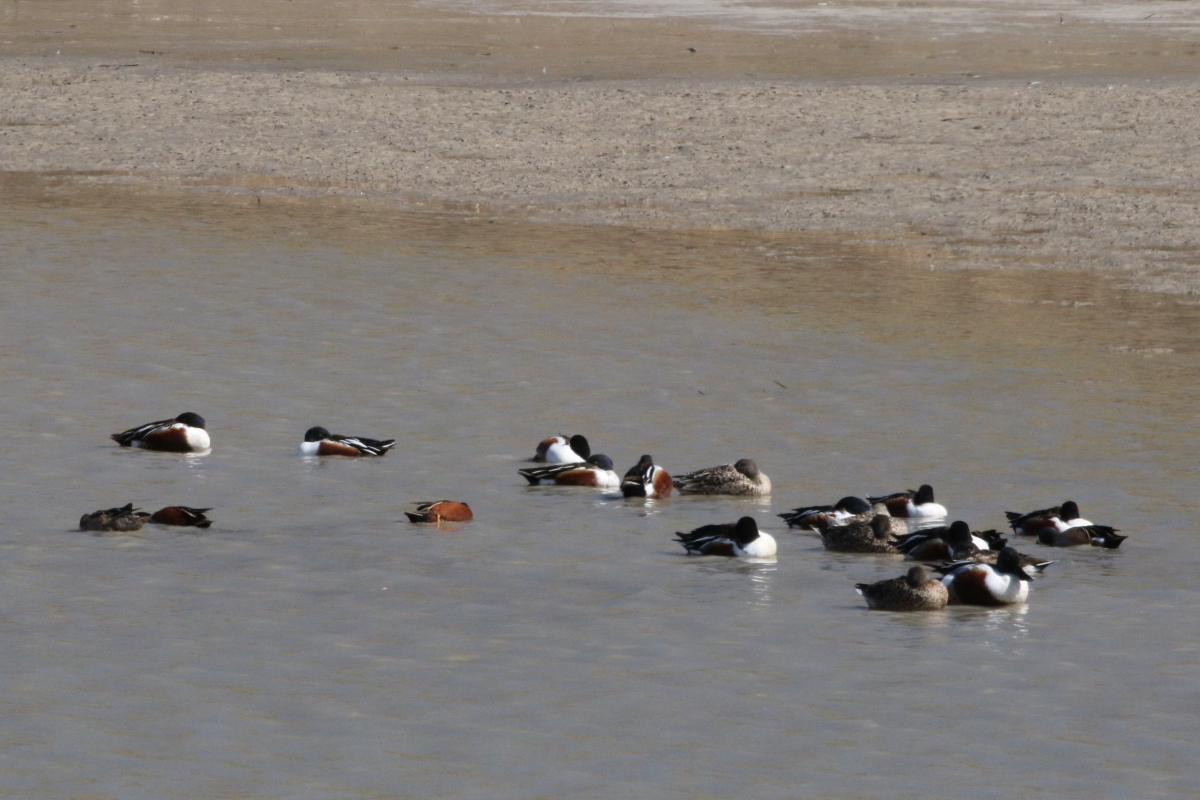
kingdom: Animalia
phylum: Chordata
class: Aves
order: Anseriformes
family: Anatidae
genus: Spatula
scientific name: Spatula cyanoptera
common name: Cinnamon teal
